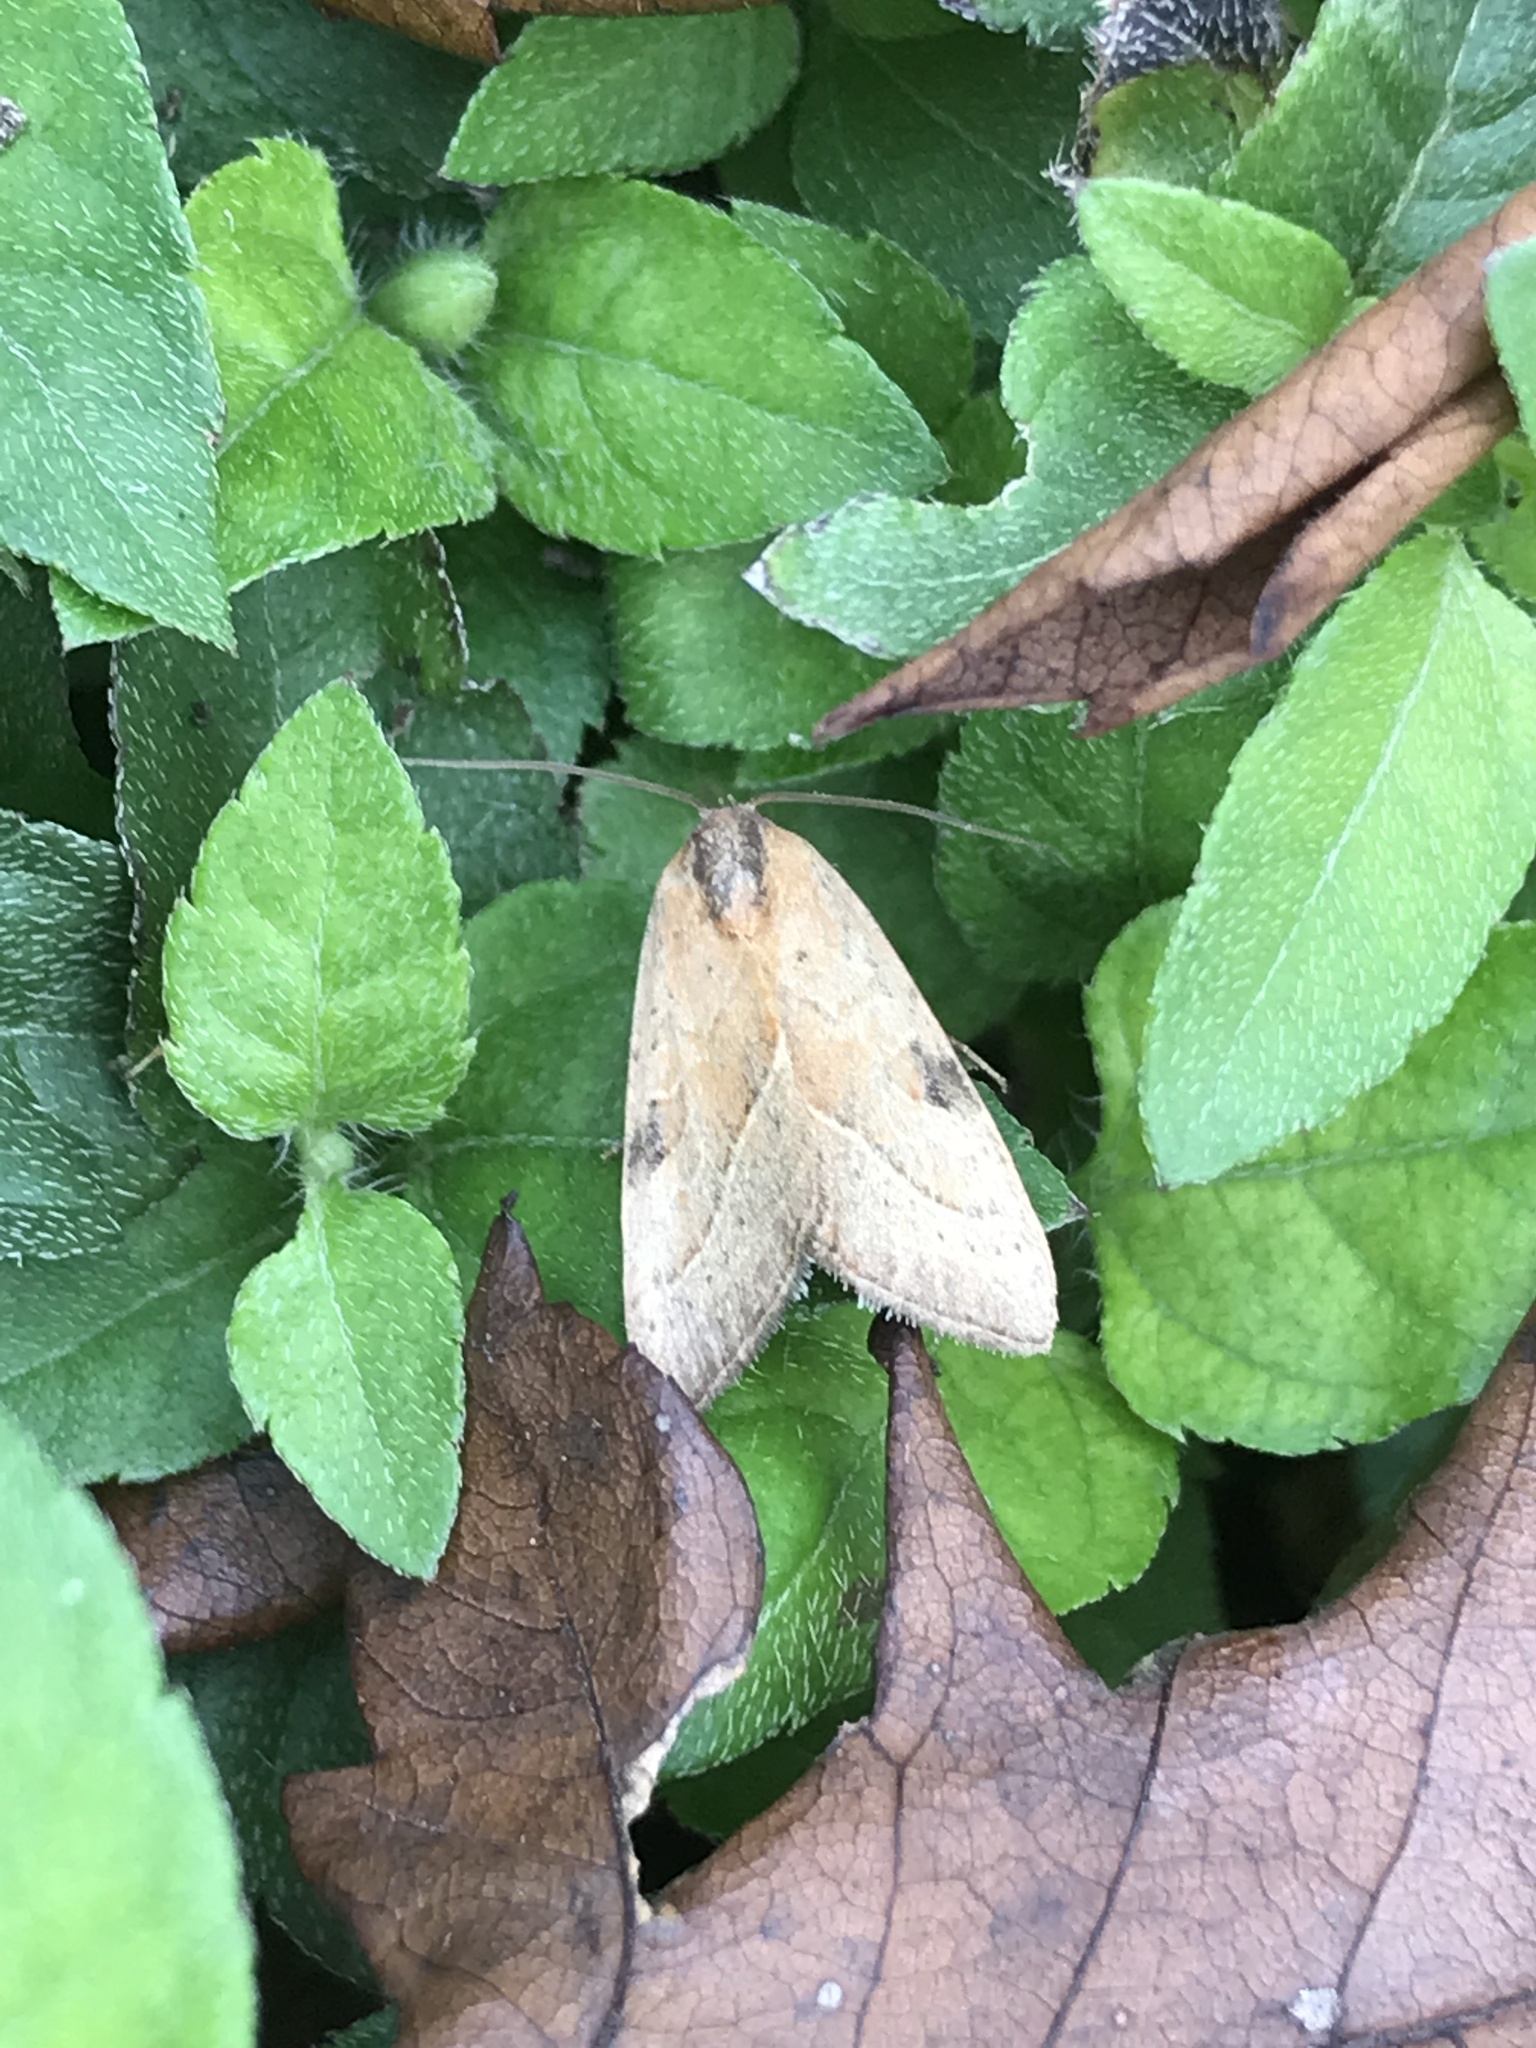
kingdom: Animalia
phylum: Arthropoda
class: Insecta
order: Lepidoptera
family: Noctuidae
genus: Galgula
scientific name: Galgula partita
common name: Wedgeling
